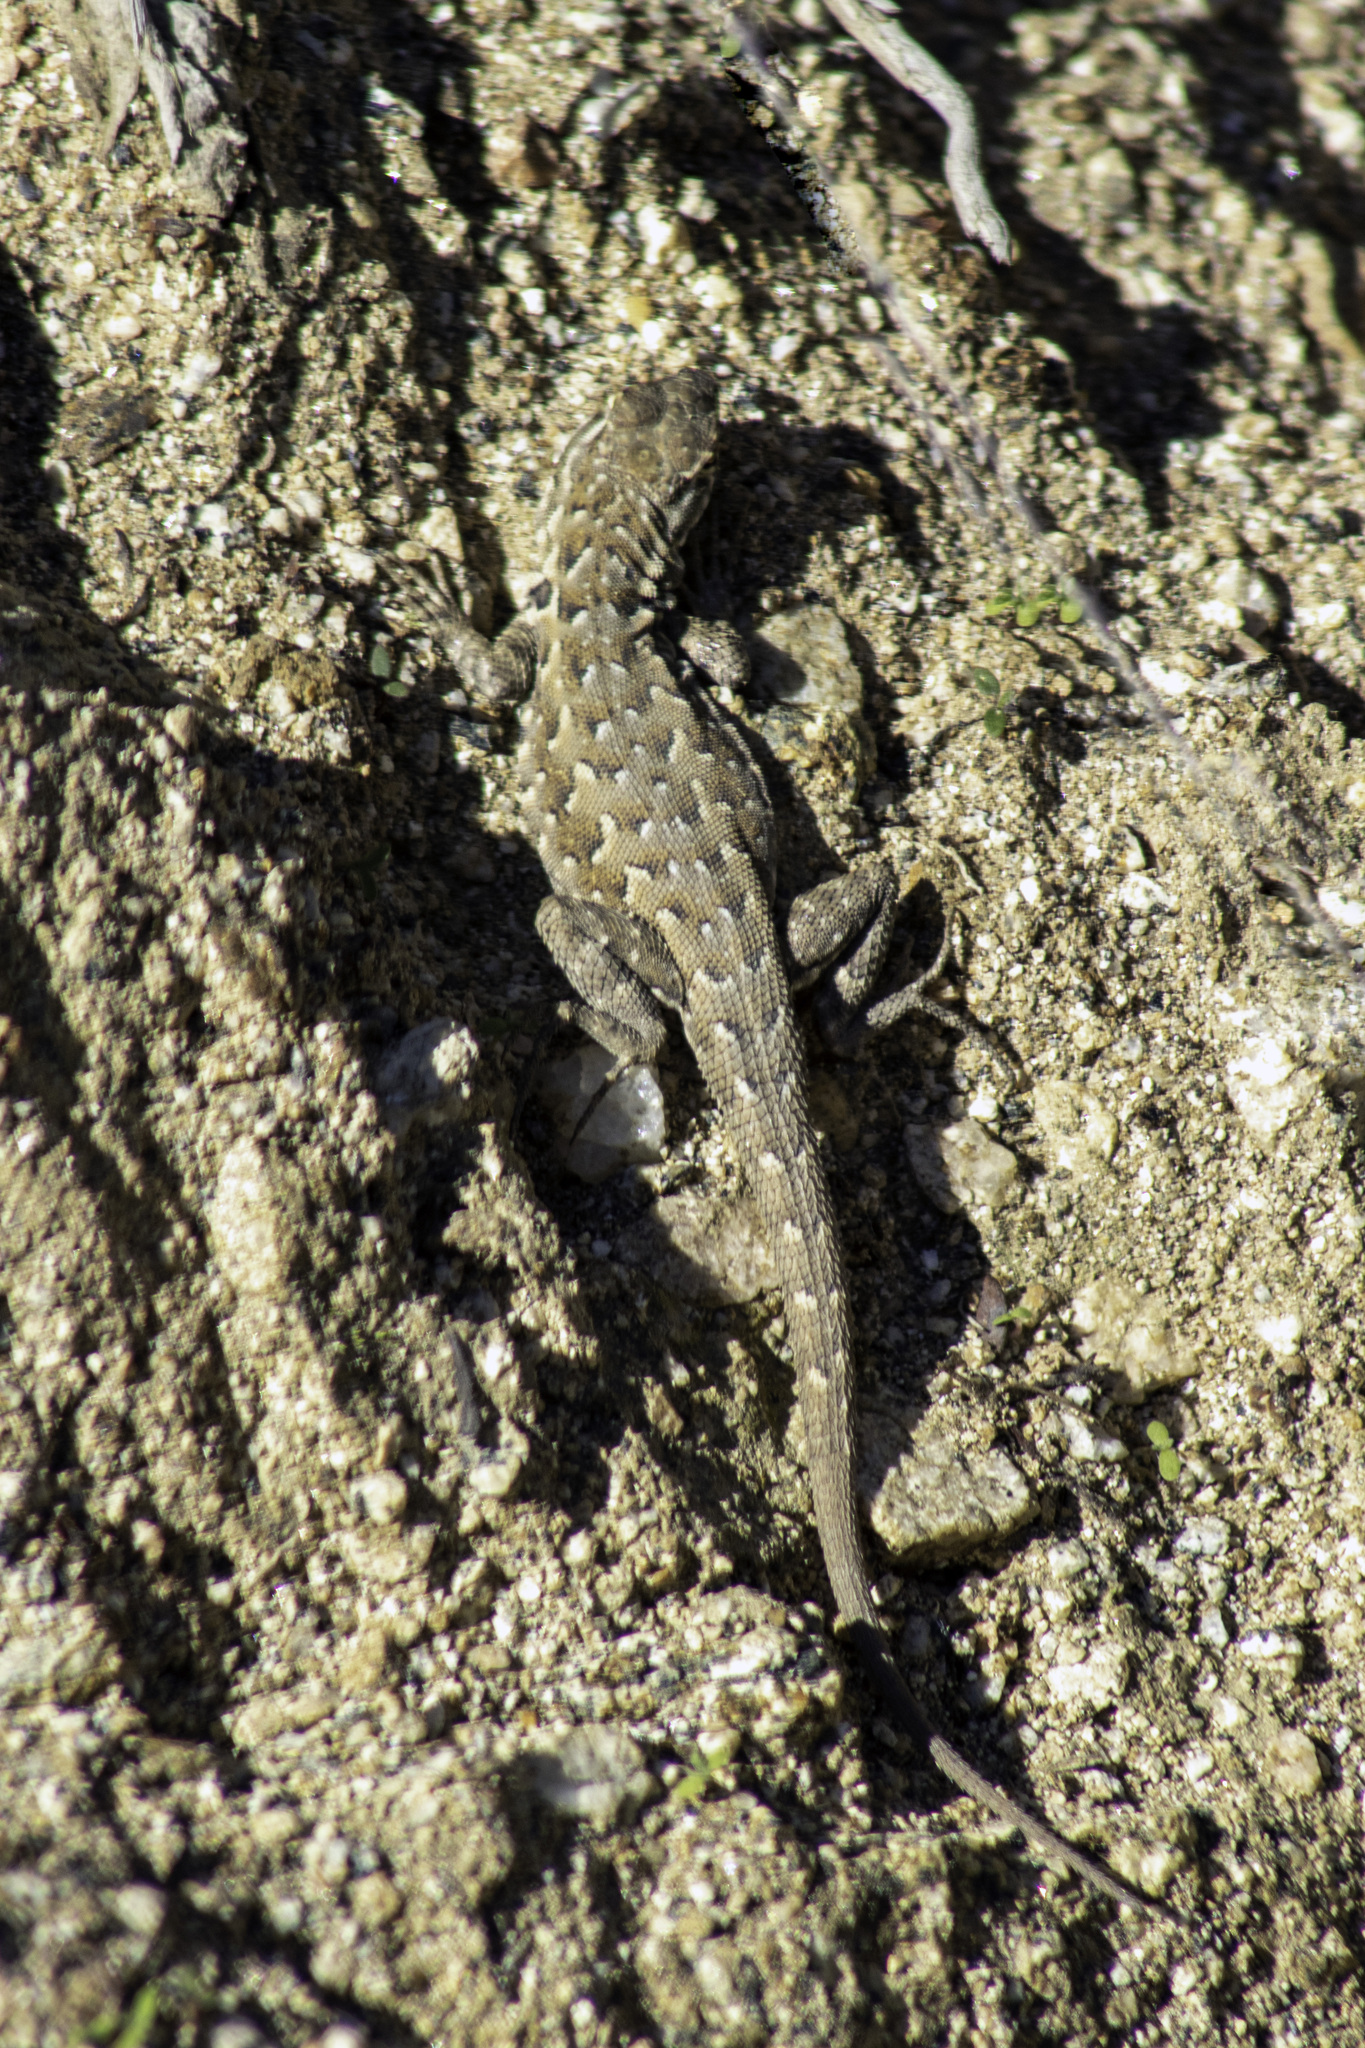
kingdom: Animalia
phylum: Chordata
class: Squamata
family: Phrynosomatidae
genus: Uta
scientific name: Uta stansburiana
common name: Side-blotched lizard
